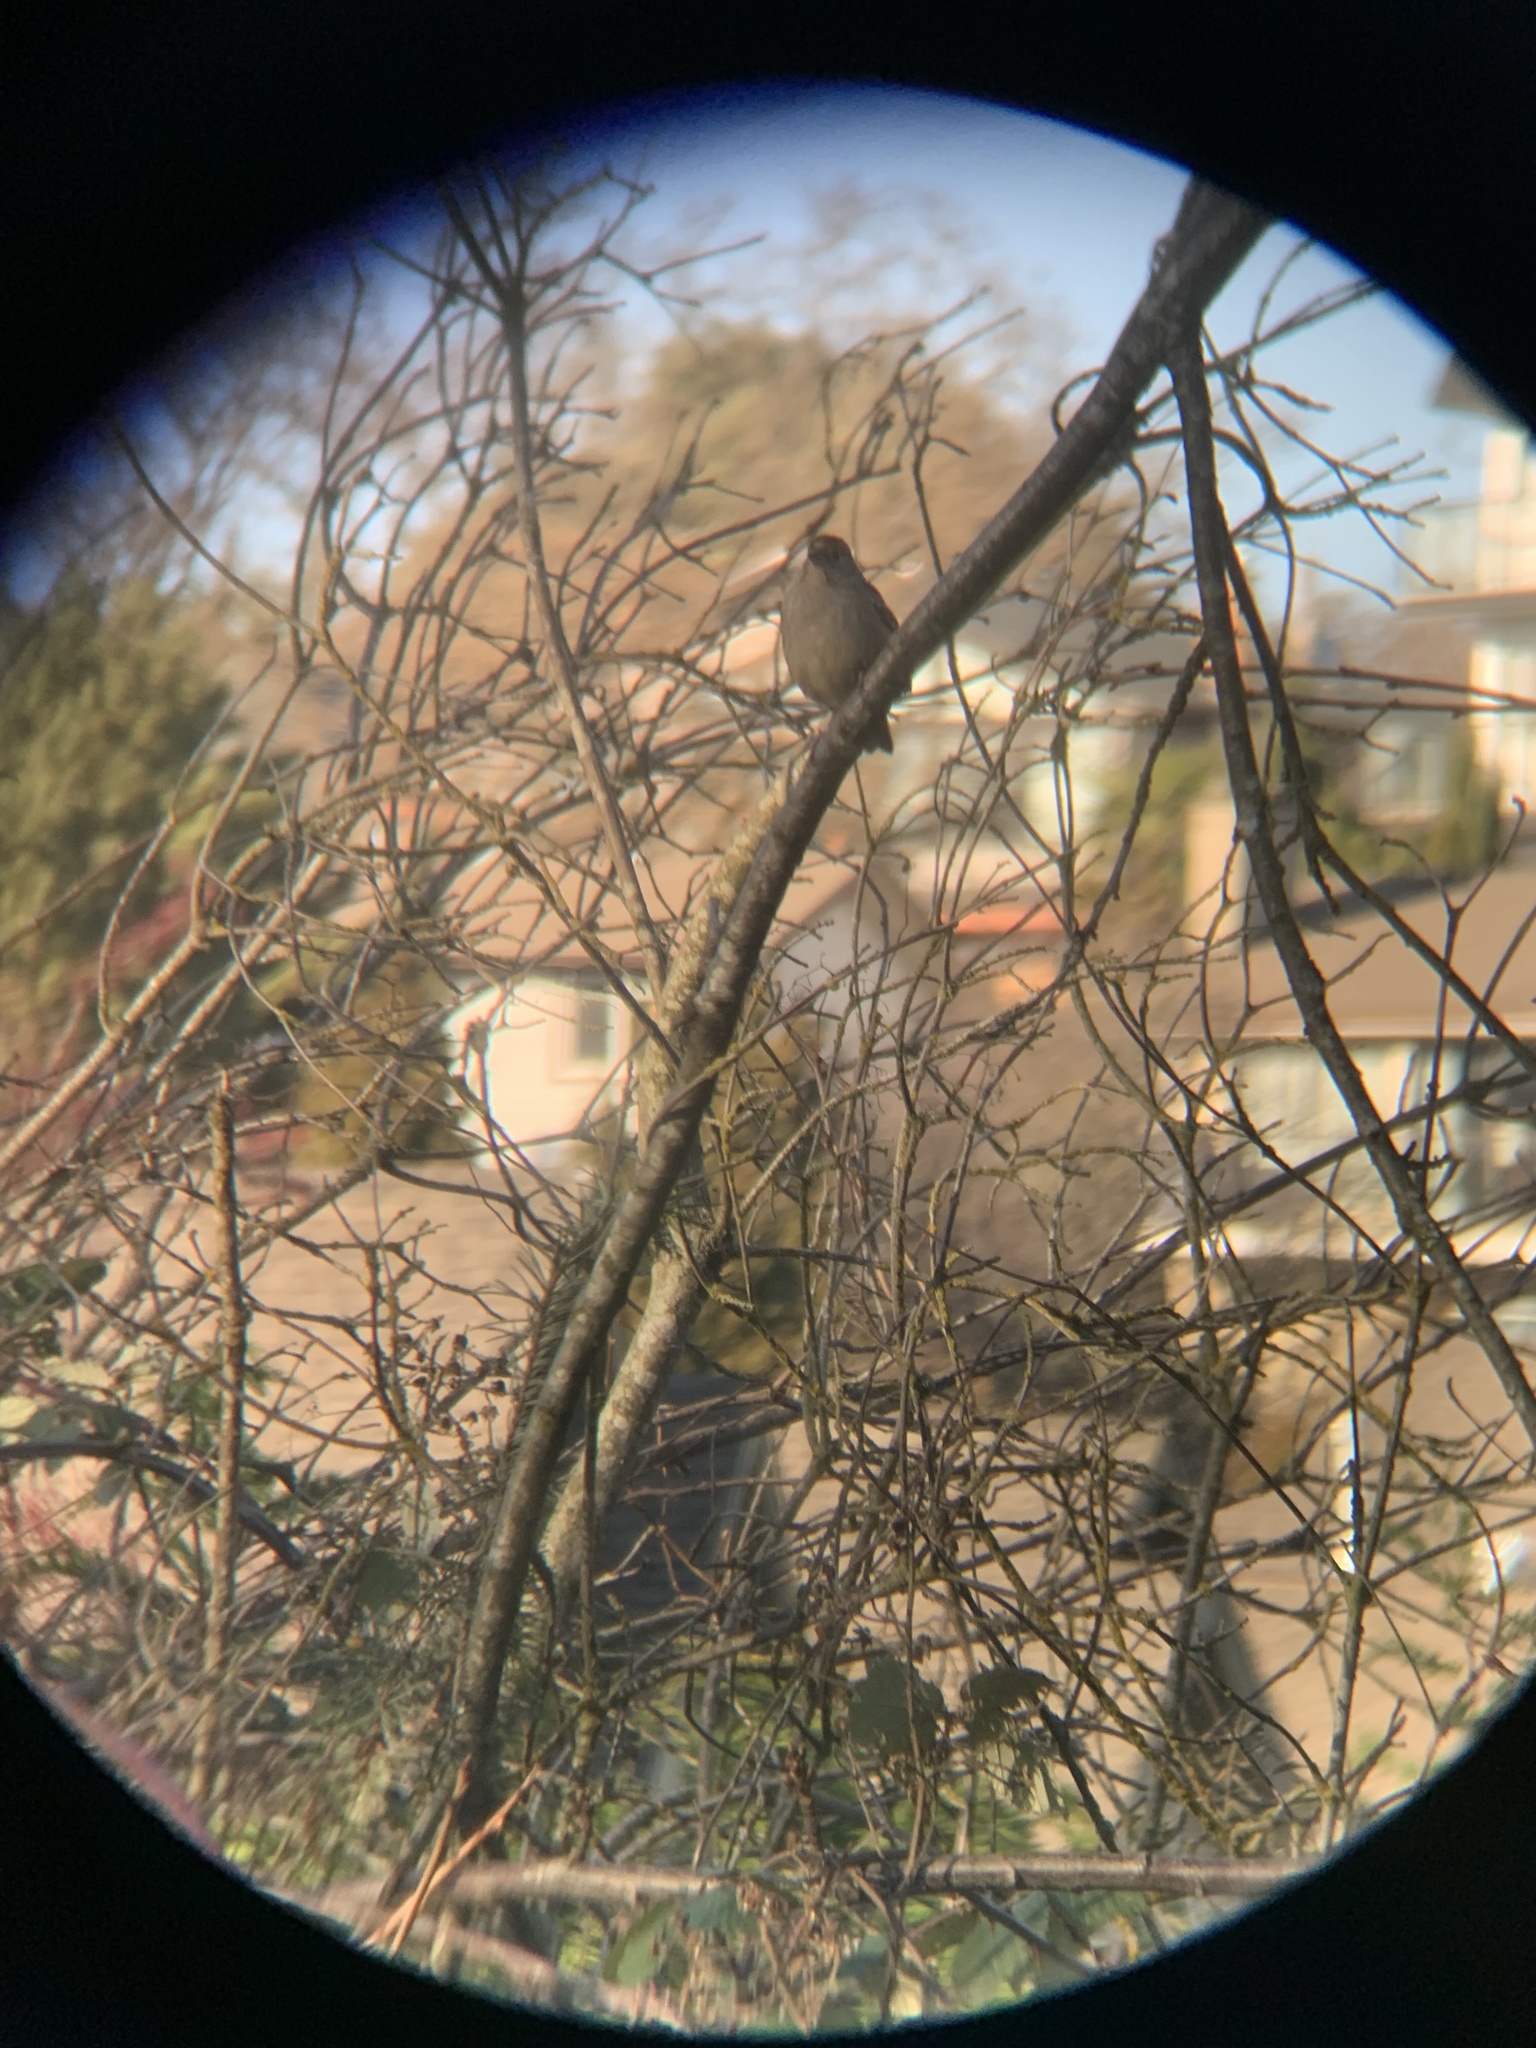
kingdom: Animalia
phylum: Chordata
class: Aves
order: Passeriformes
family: Passerellidae
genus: Zonotrichia
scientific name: Zonotrichia atricapilla
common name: Golden-crowned sparrow
